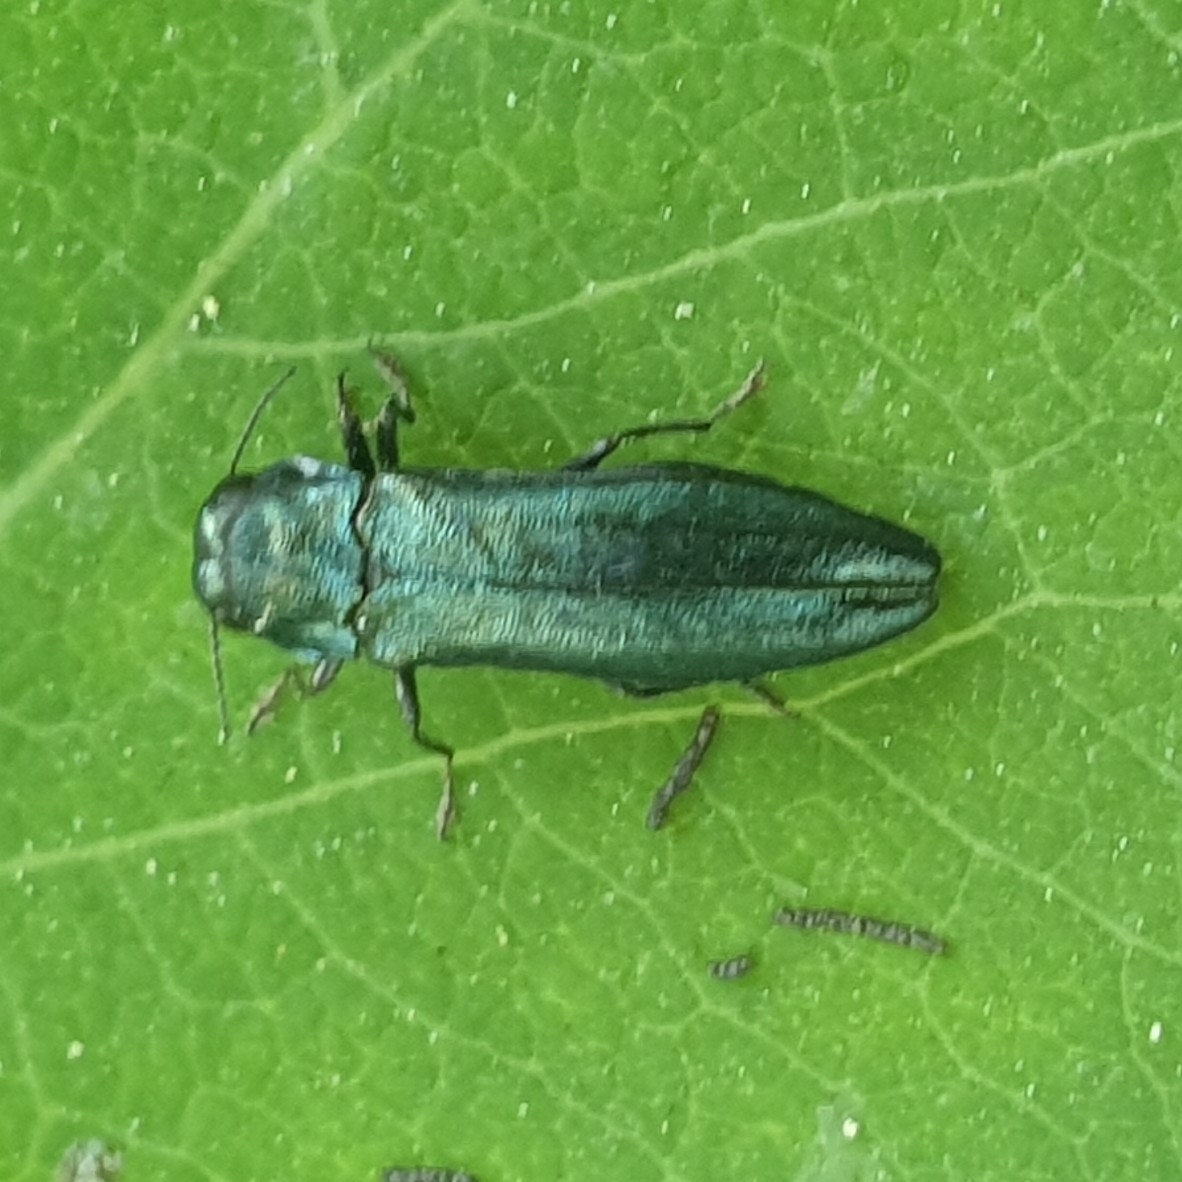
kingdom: Animalia
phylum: Arthropoda
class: Insecta
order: Coleoptera
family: Buprestidae
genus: Agrilus
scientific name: Agrilus cyanescens
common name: Bluish borer beetle
